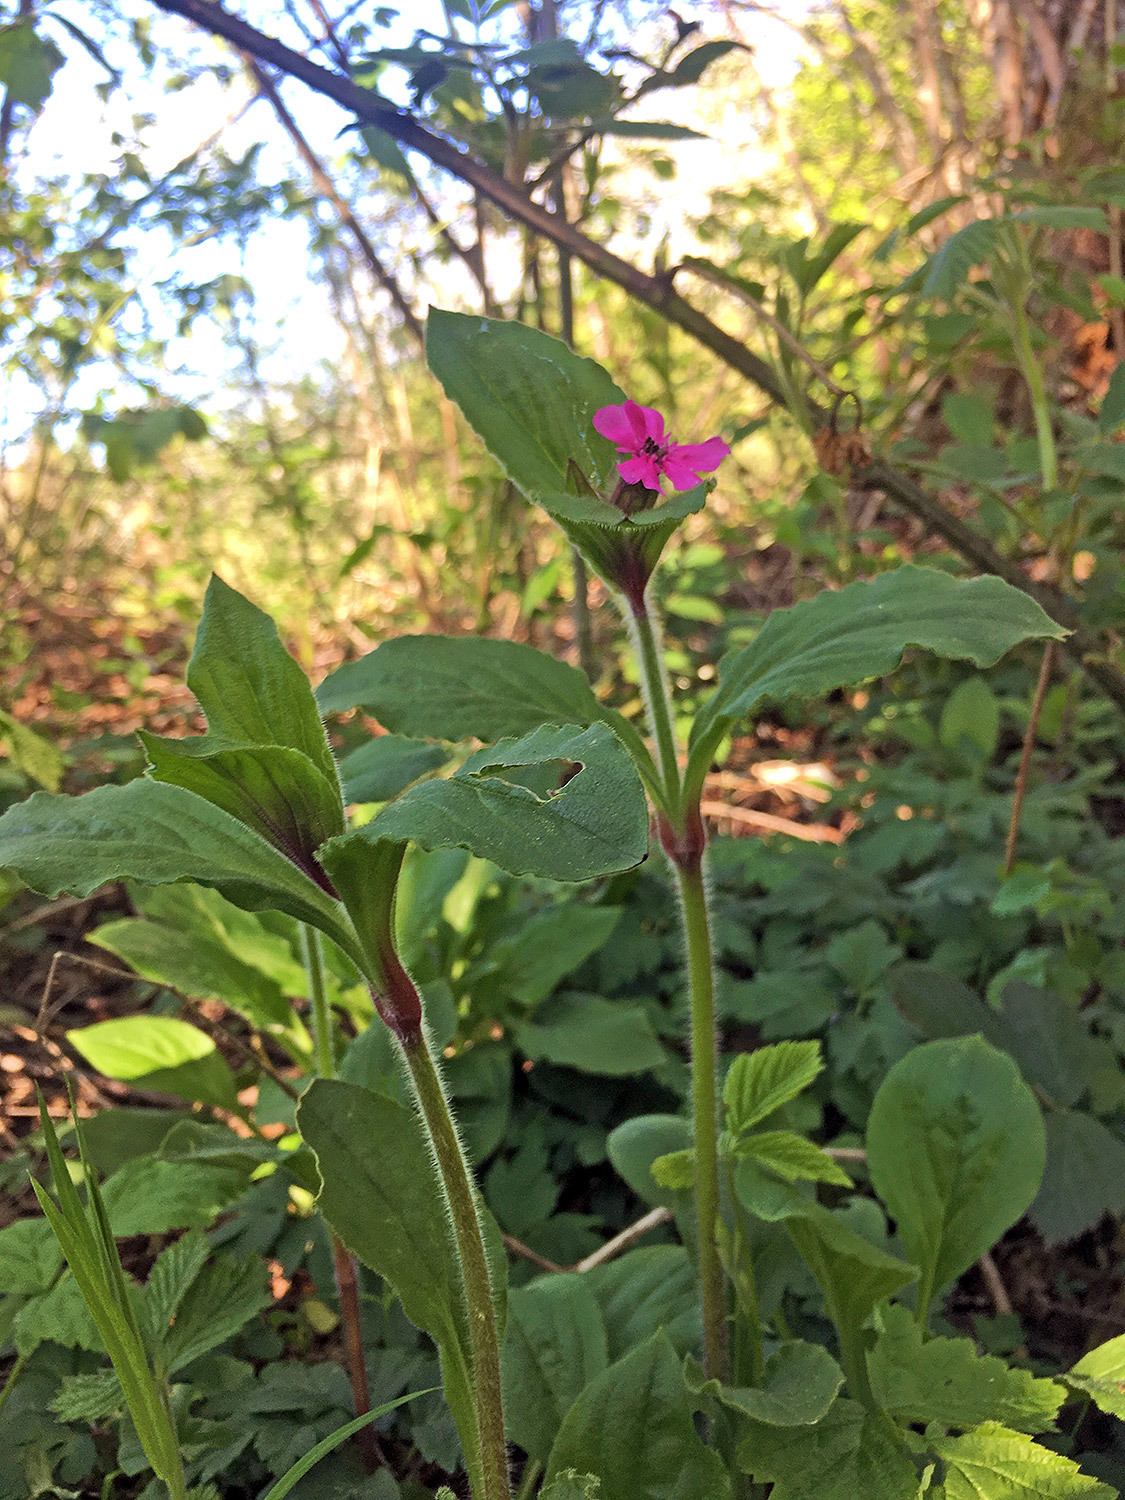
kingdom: Plantae
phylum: Tracheophyta
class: Magnoliopsida
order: Caryophyllales
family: Caryophyllaceae
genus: Silene
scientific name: Silene dioica
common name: Red campion
